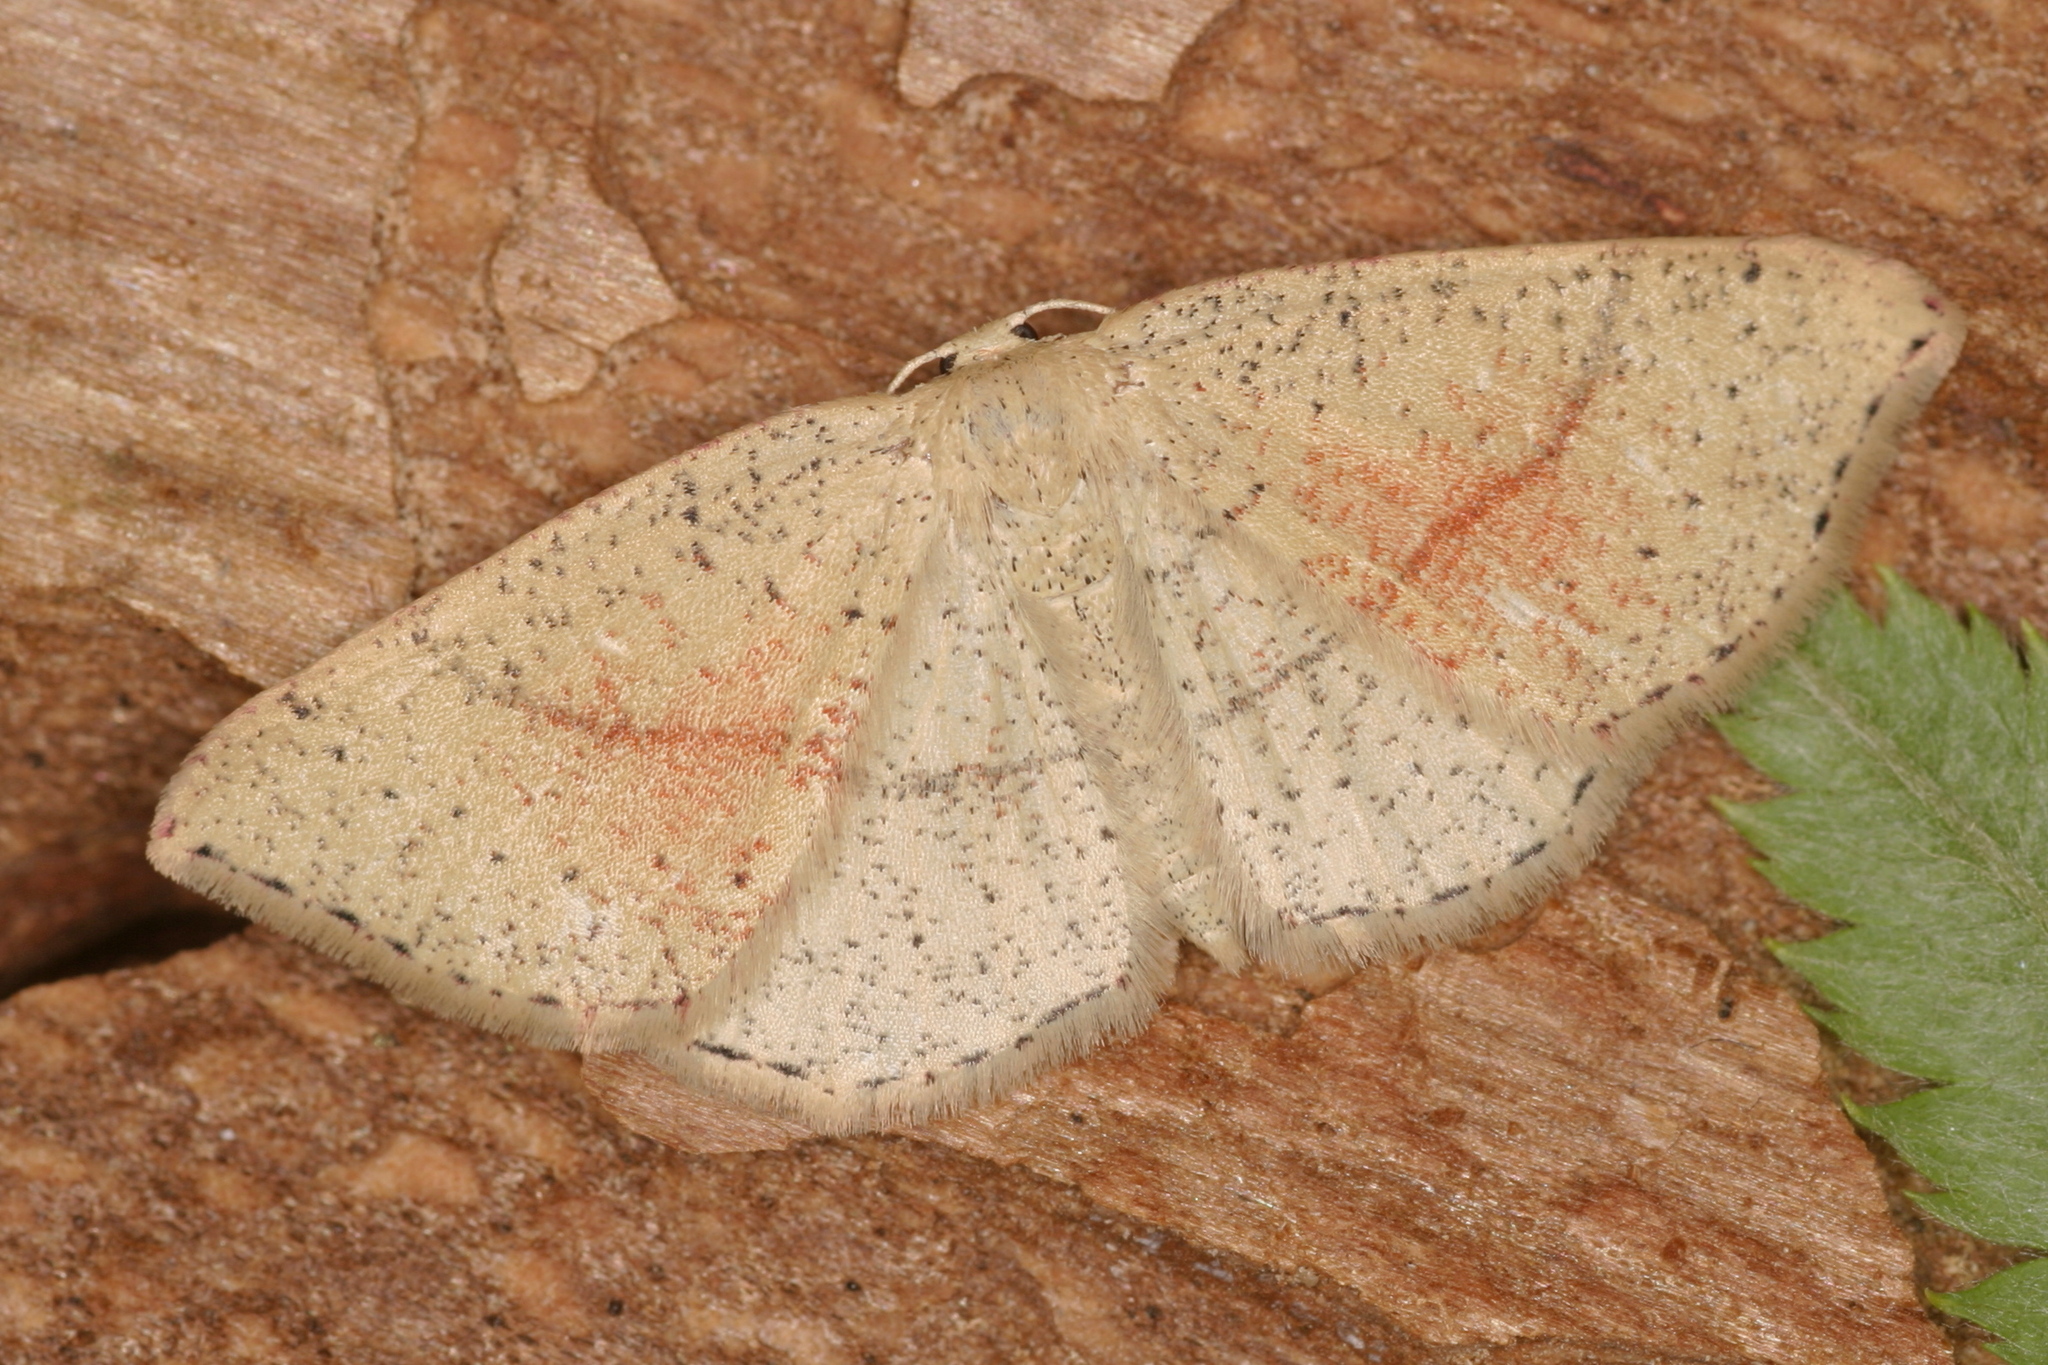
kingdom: Animalia
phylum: Arthropoda
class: Insecta
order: Lepidoptera
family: Geometridae
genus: Cyclophora
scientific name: Cyclophora punctaria
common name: Maiden's blush
